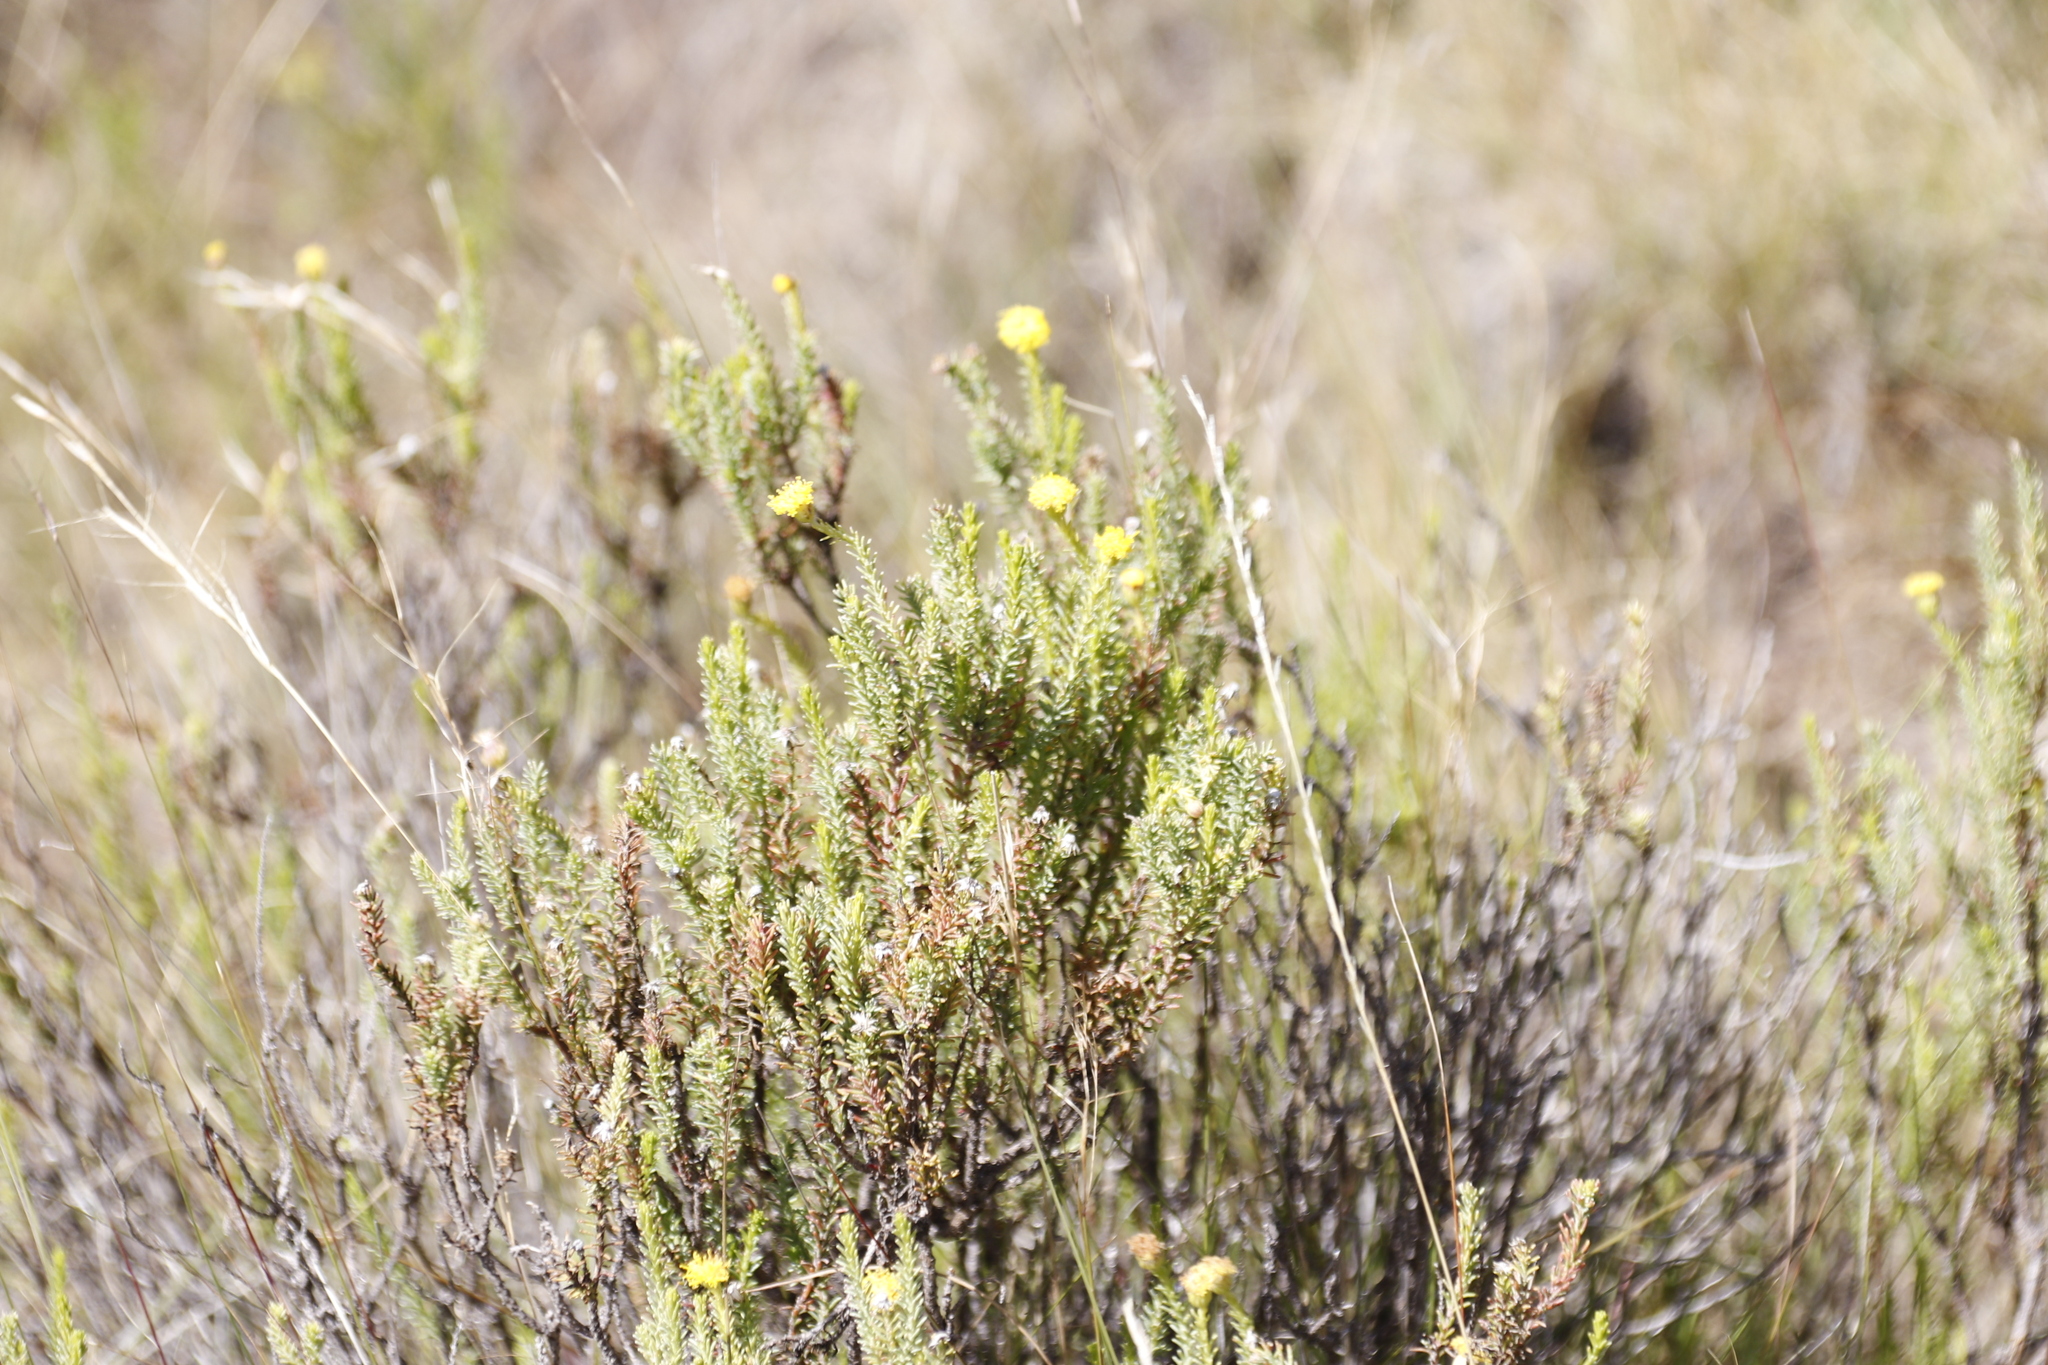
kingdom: Plantae
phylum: Tracheophyta
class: Magnoliopsida
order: Asterales
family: Asteraceae
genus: Chrysocoma
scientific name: Chrysocoma ciliata
